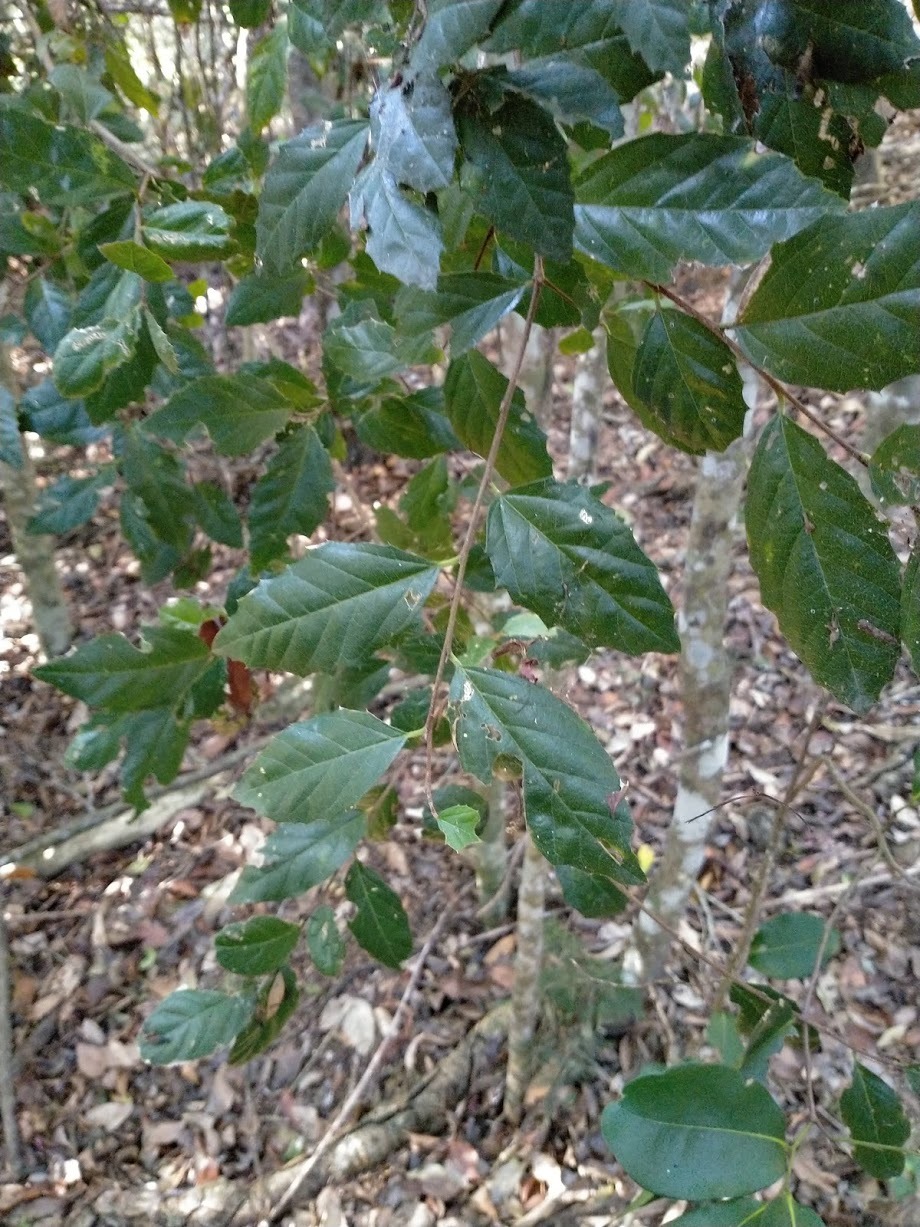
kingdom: Plantae
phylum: Tracheophyta
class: Magnoliopsida
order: Rosales
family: Cannabaceae
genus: Aphananthe
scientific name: Aphananthe philippinensis
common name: Wild holly
